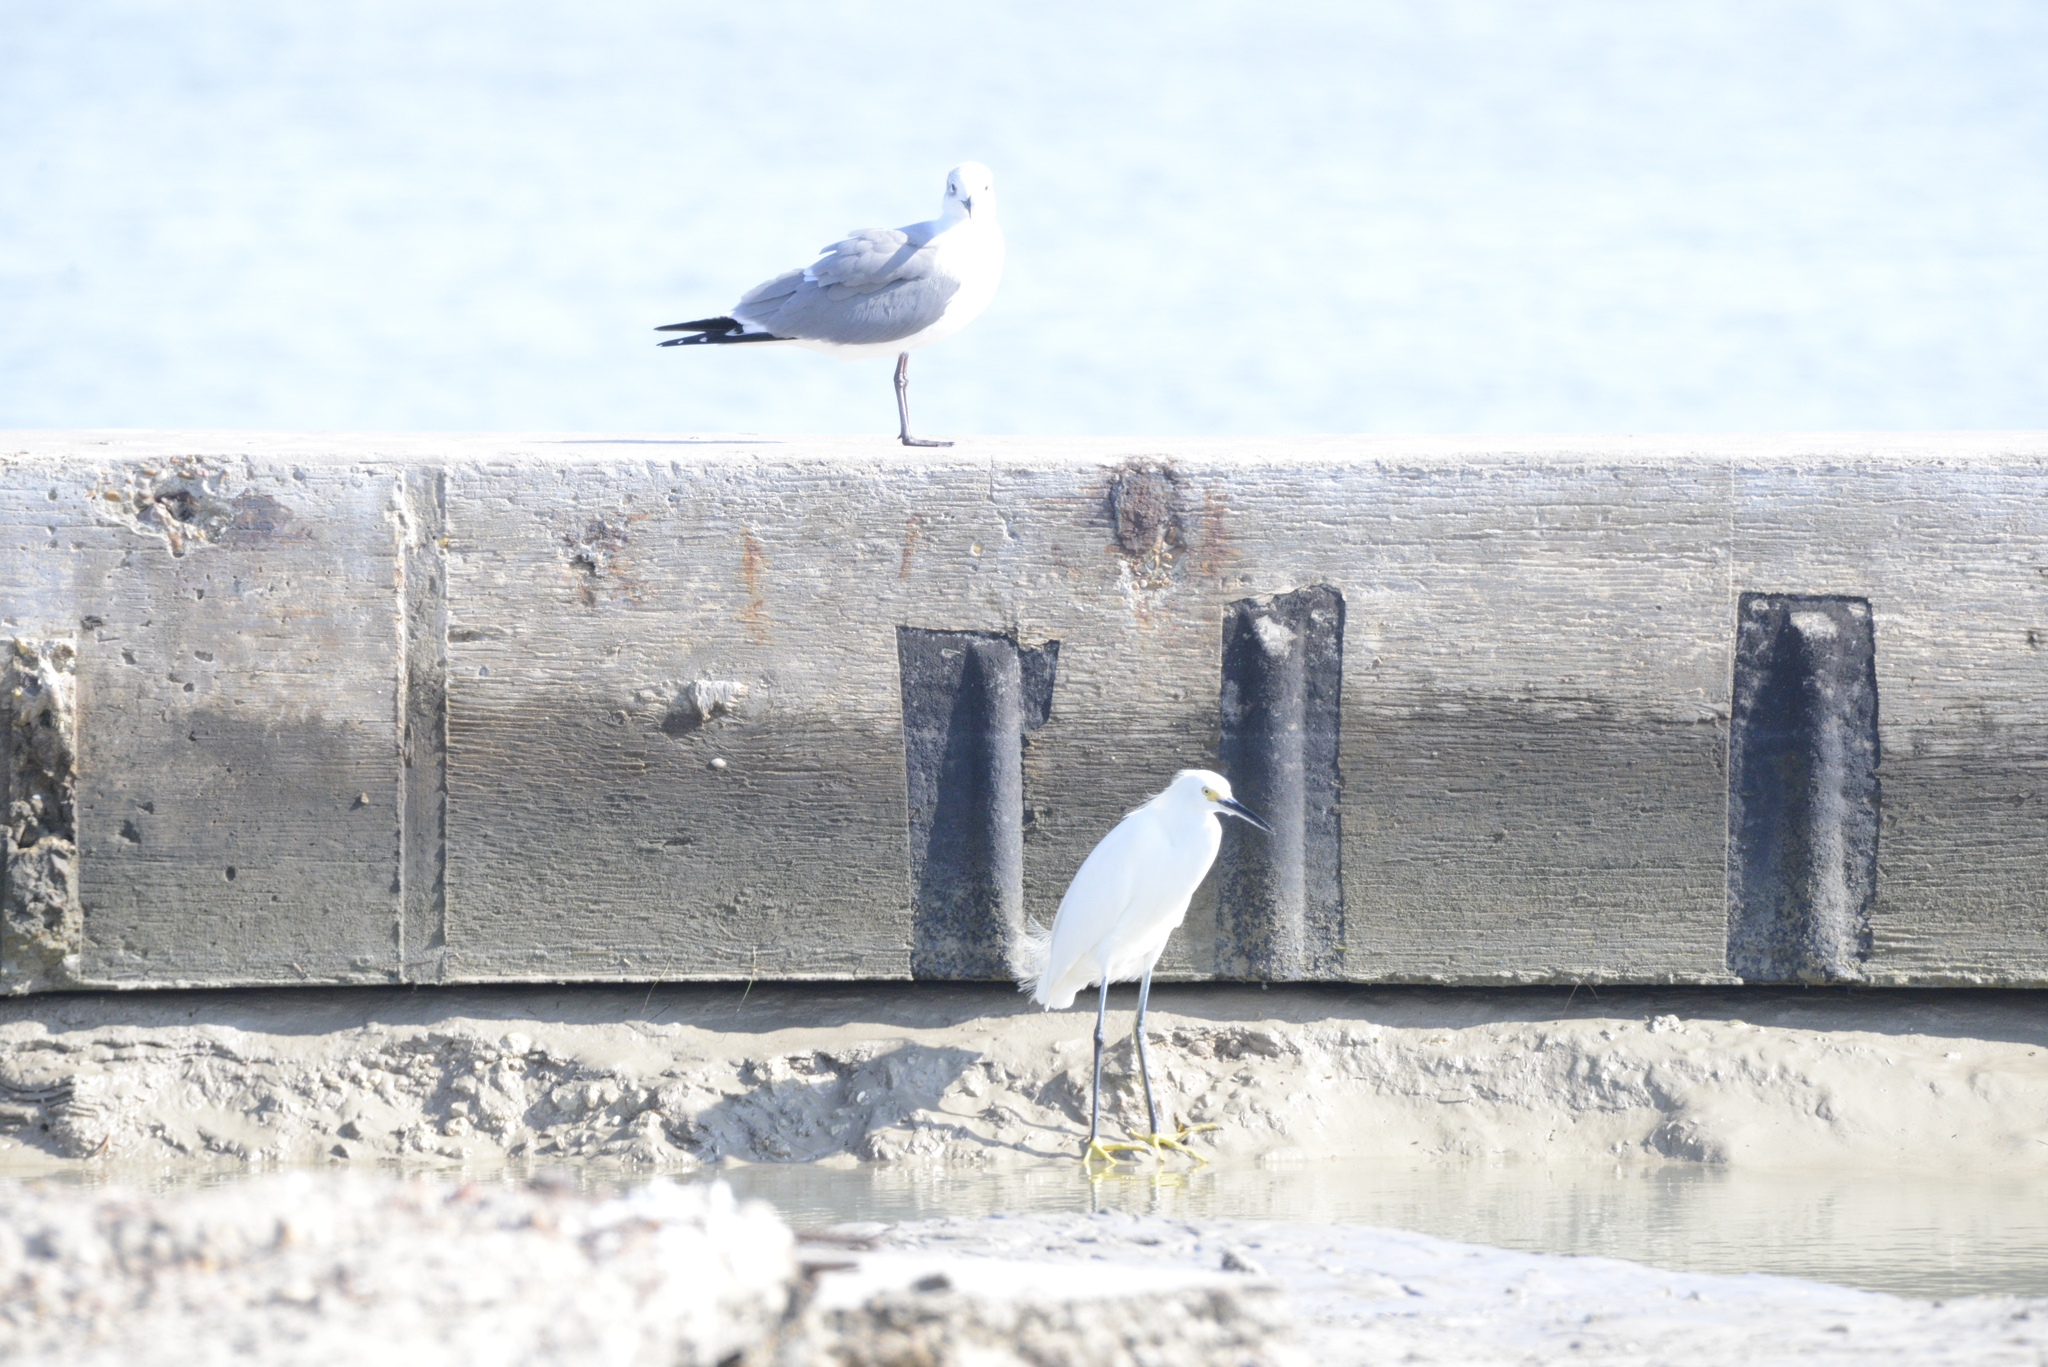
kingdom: Animalia
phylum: Chordata
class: Aves
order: Charadriiformes
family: Laridae
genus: Leucophaeus
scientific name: Leucophaeus atricilla
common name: Laughing gull
